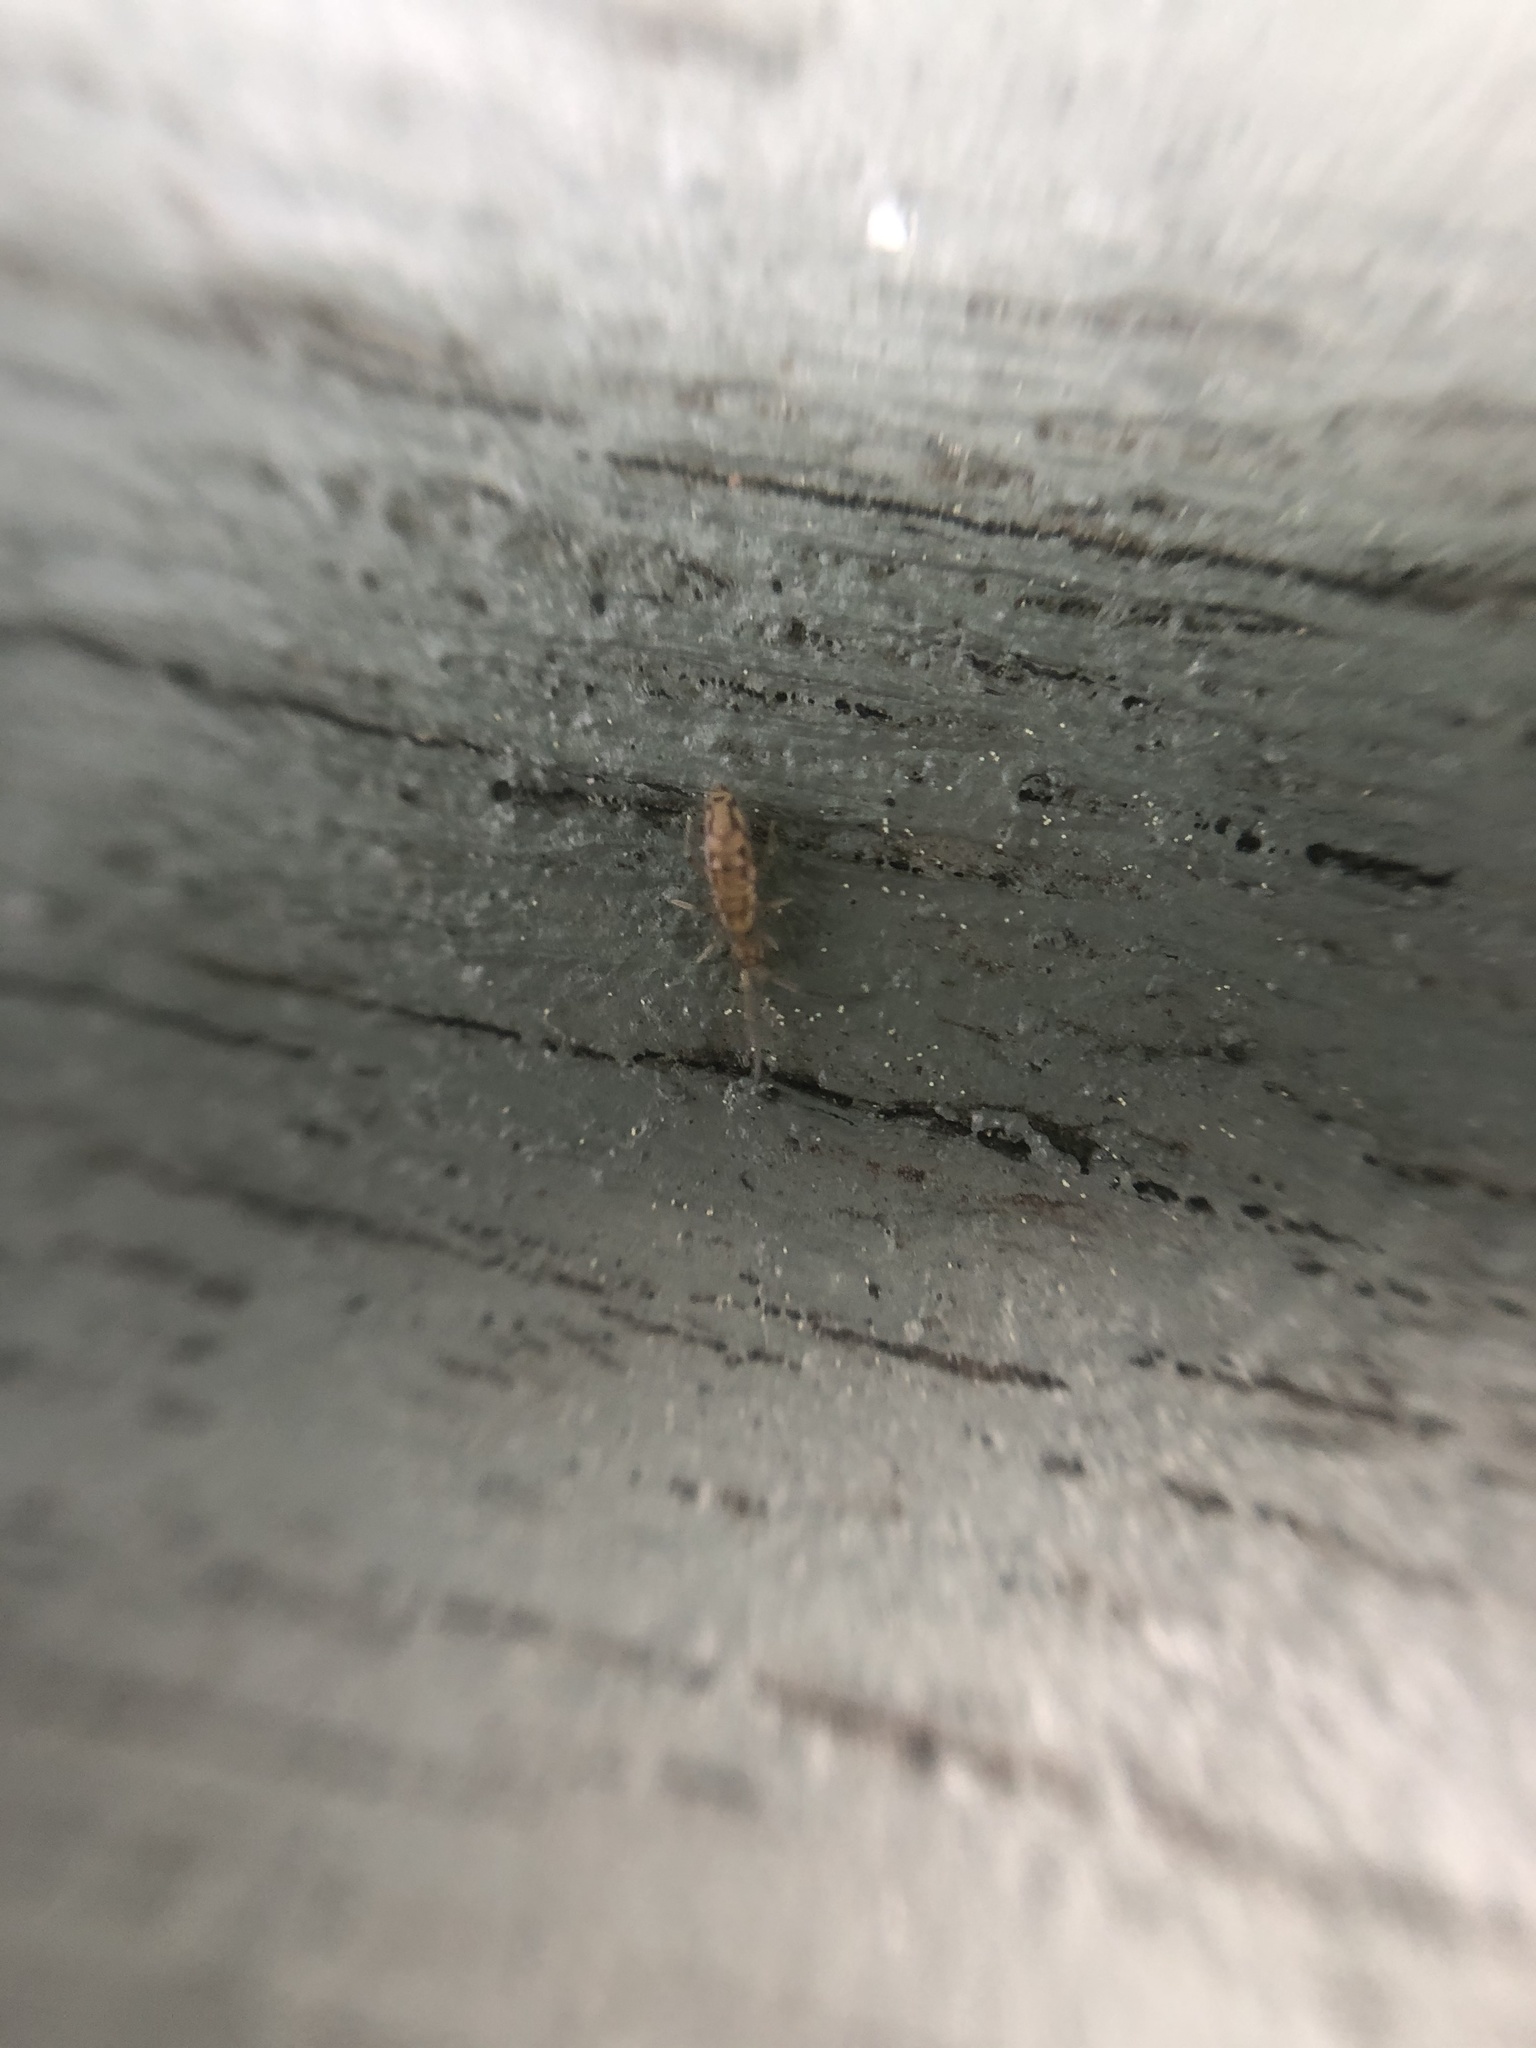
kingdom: Animalia
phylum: Arthropoda
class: Collembola
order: Entomobryomorpha
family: Entomobryidae
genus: Entomobrya
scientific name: Entomobrya intermedia
